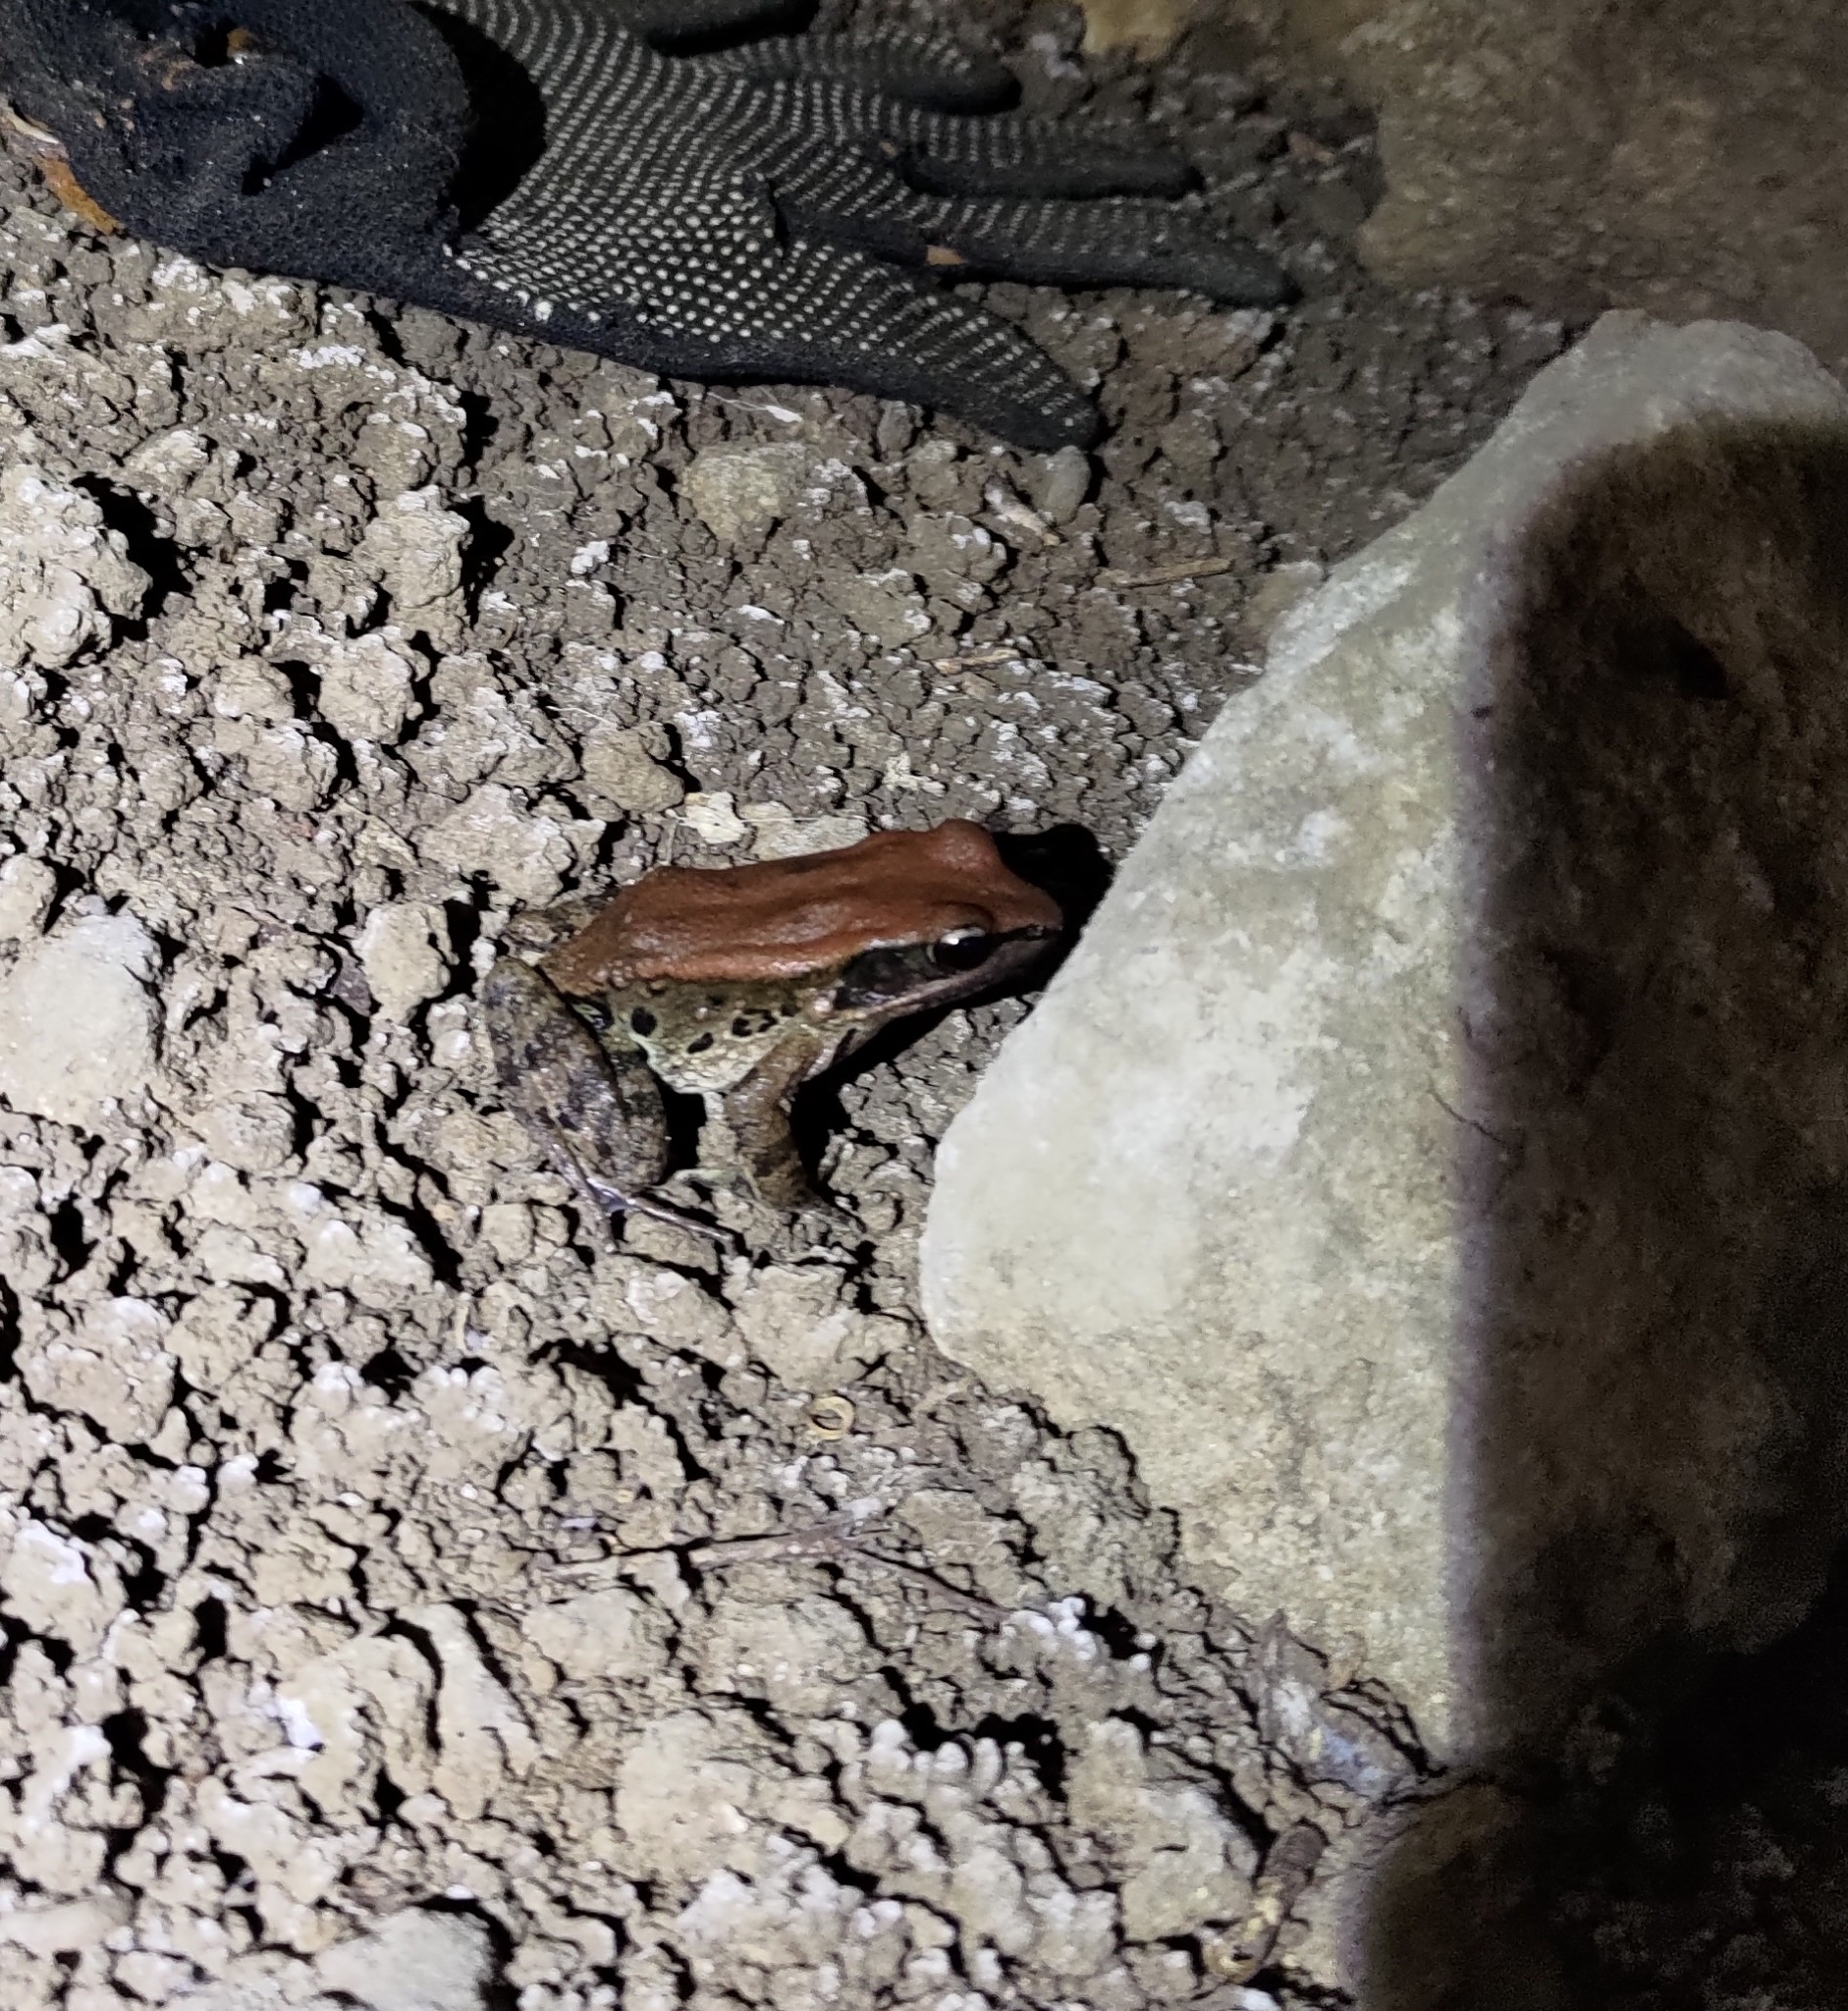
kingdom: Animalia
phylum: Chordata
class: Amphibia
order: Anura
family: Ranidae
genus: Hylarana
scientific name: Hylarana latouchii
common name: Broad-folded frog
